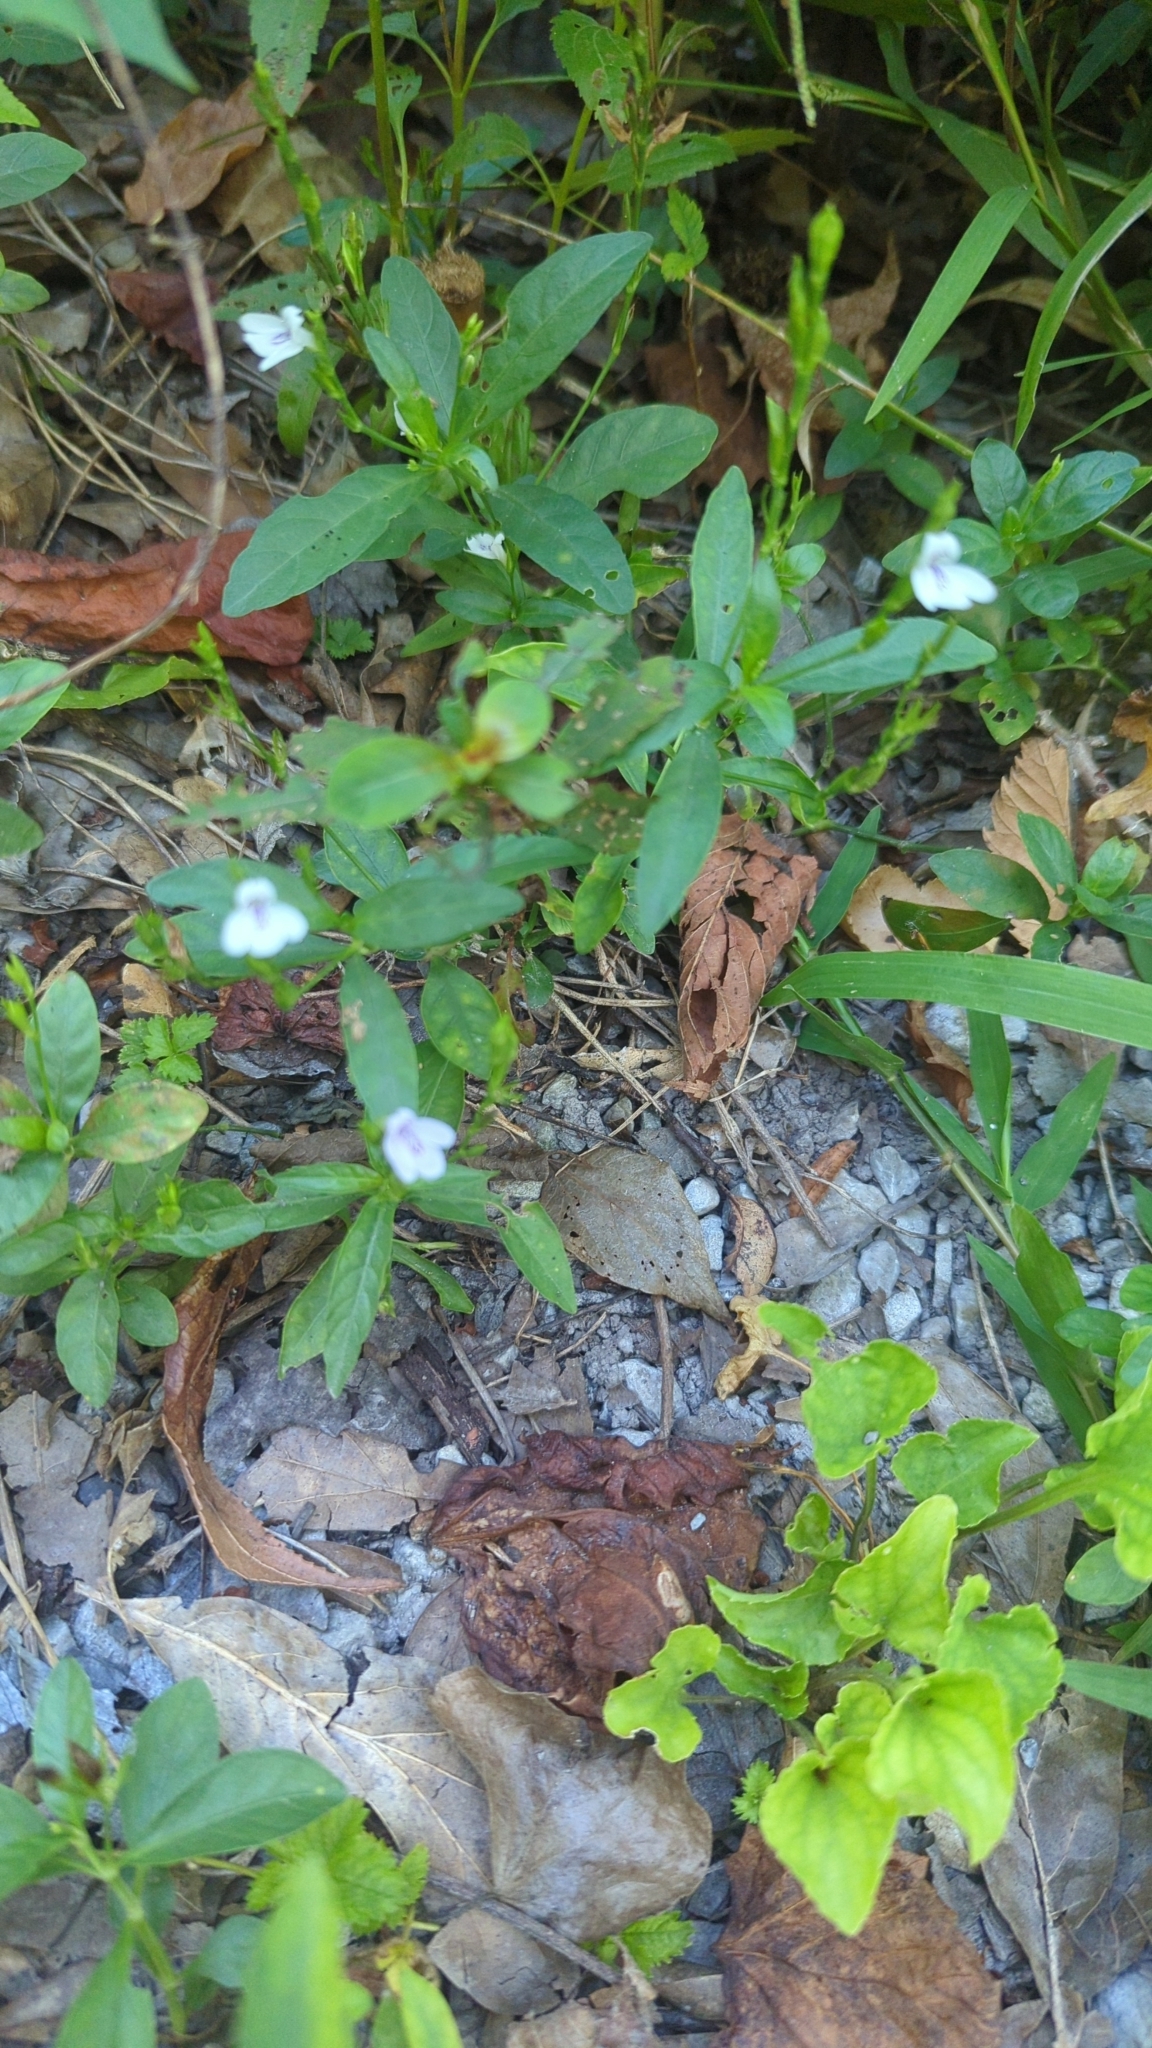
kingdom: Plantae
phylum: Tracheophyta
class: Magnoliopsida
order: Lamiales
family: Acanthaceae
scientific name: Acanthaceae
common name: Acanthaceae
